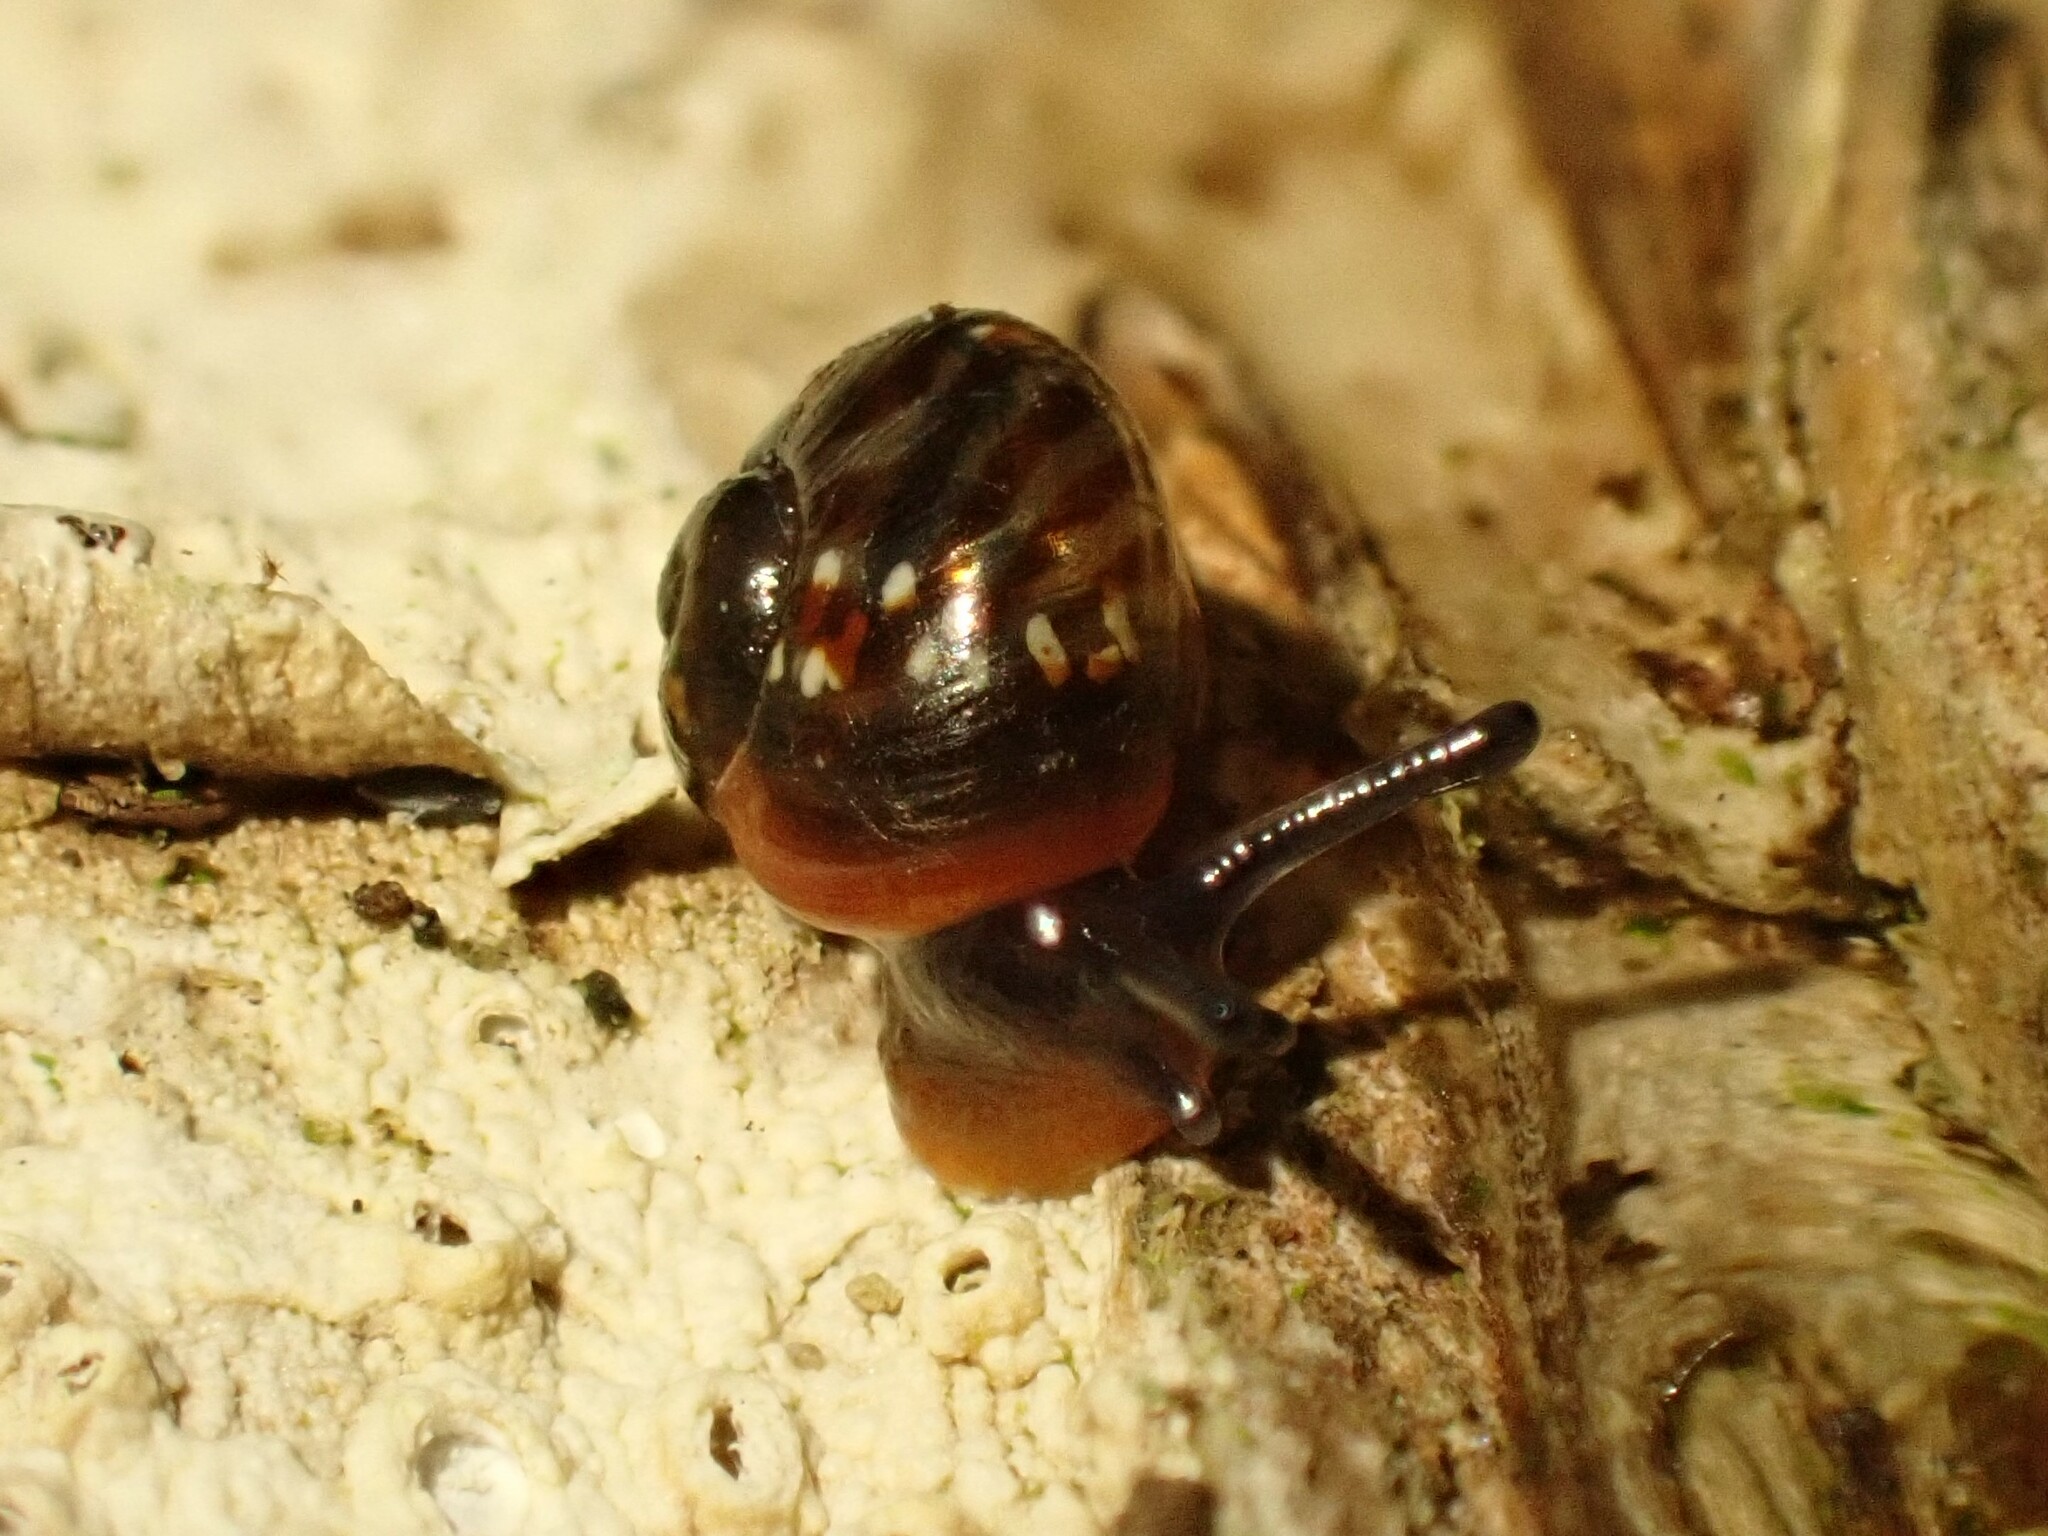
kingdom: Animalia
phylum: Mollusca
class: Gastropoda
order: Stylommatophora
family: Charopidae
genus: Flammulina
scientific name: Flammulina zebra
